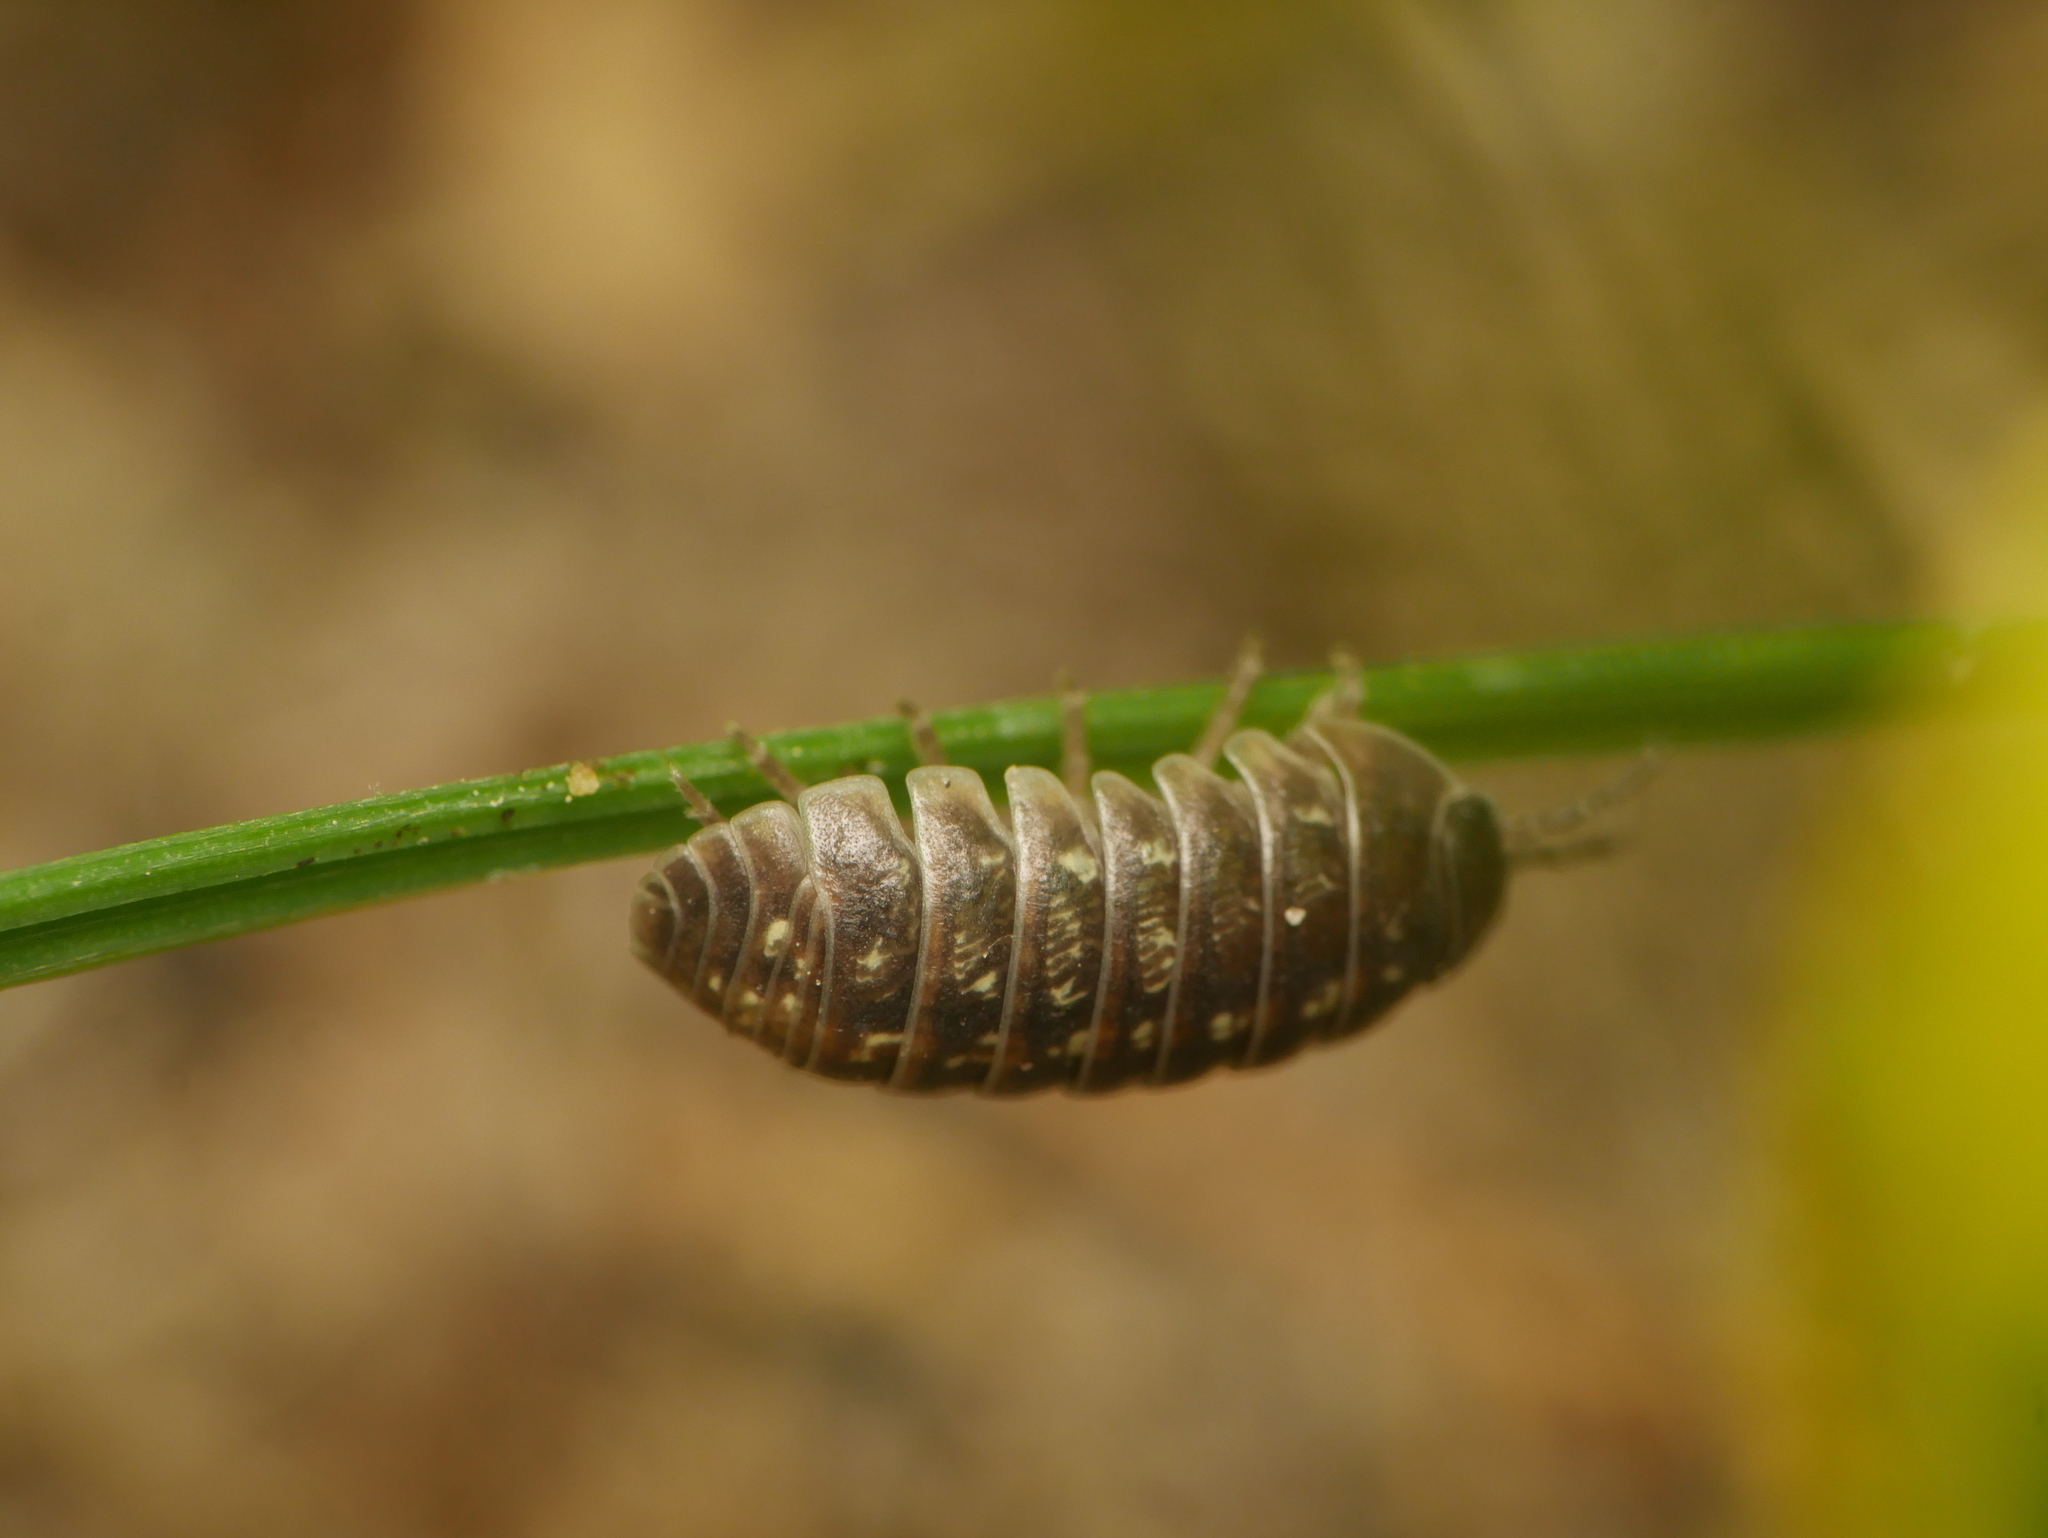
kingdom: Animalia
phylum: Arthropoda
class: Malacostraca
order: Isopoda
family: Armadillidiidae
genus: Armadillidium
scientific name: Armadillidium vulgare
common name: Common pill woodlouse
